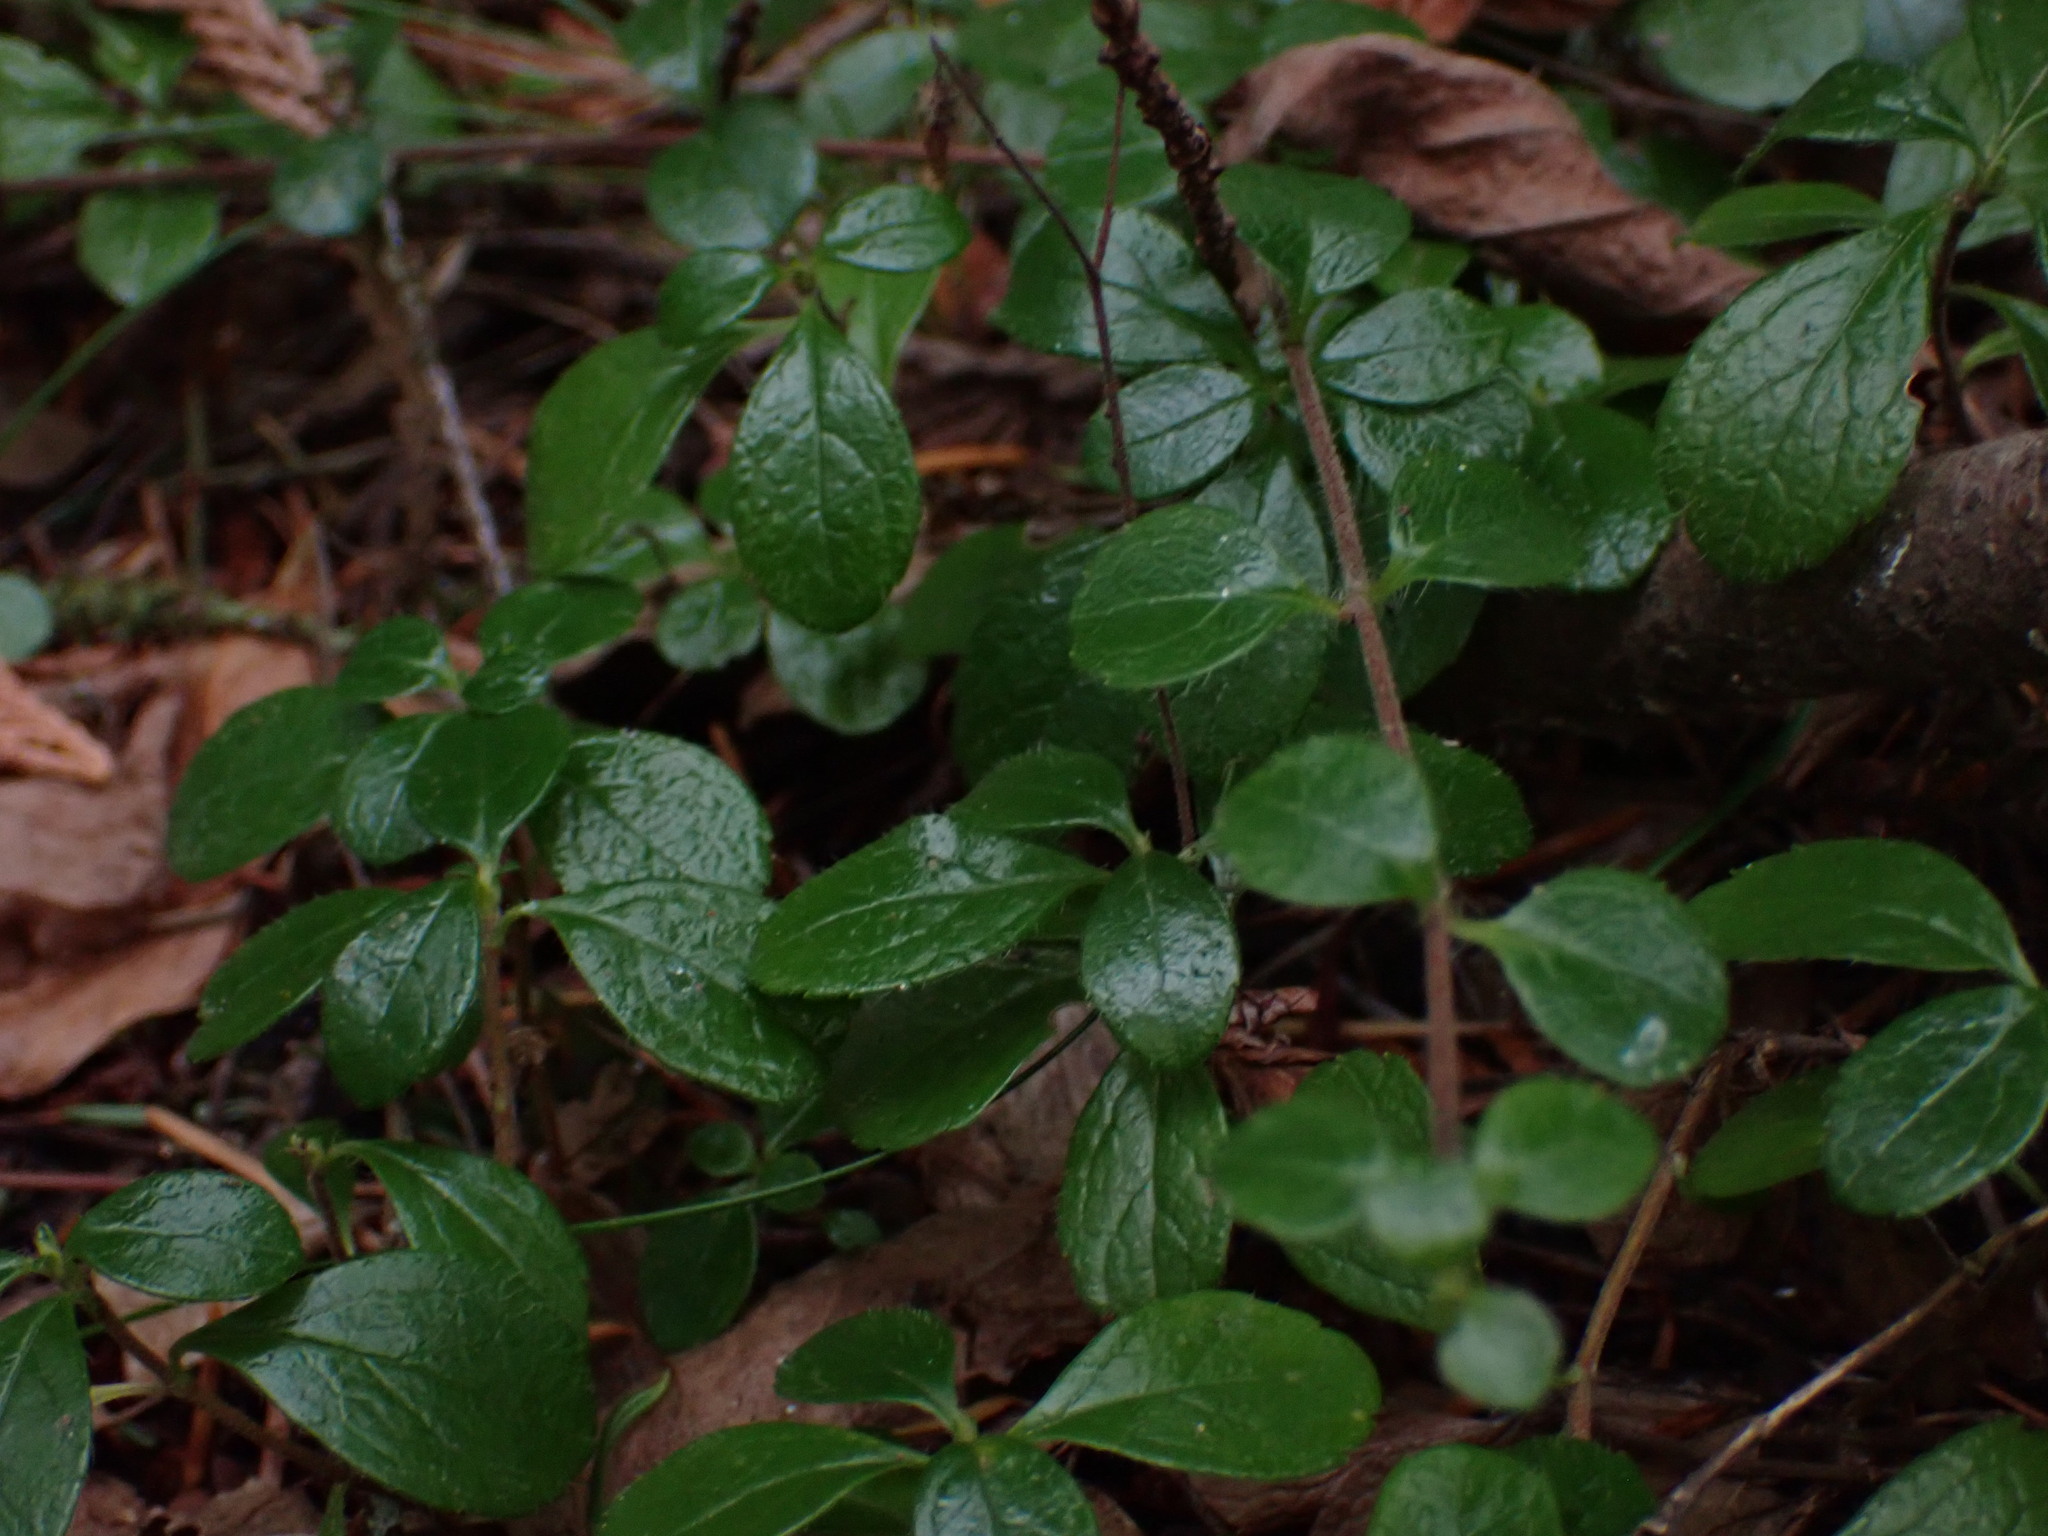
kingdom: Plantae
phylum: Tracheophyta
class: Magnoliopsida
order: Dipsacales
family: Caprifoliaceae
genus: Linnaea
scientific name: Linnaea borealis
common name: Twinflower
